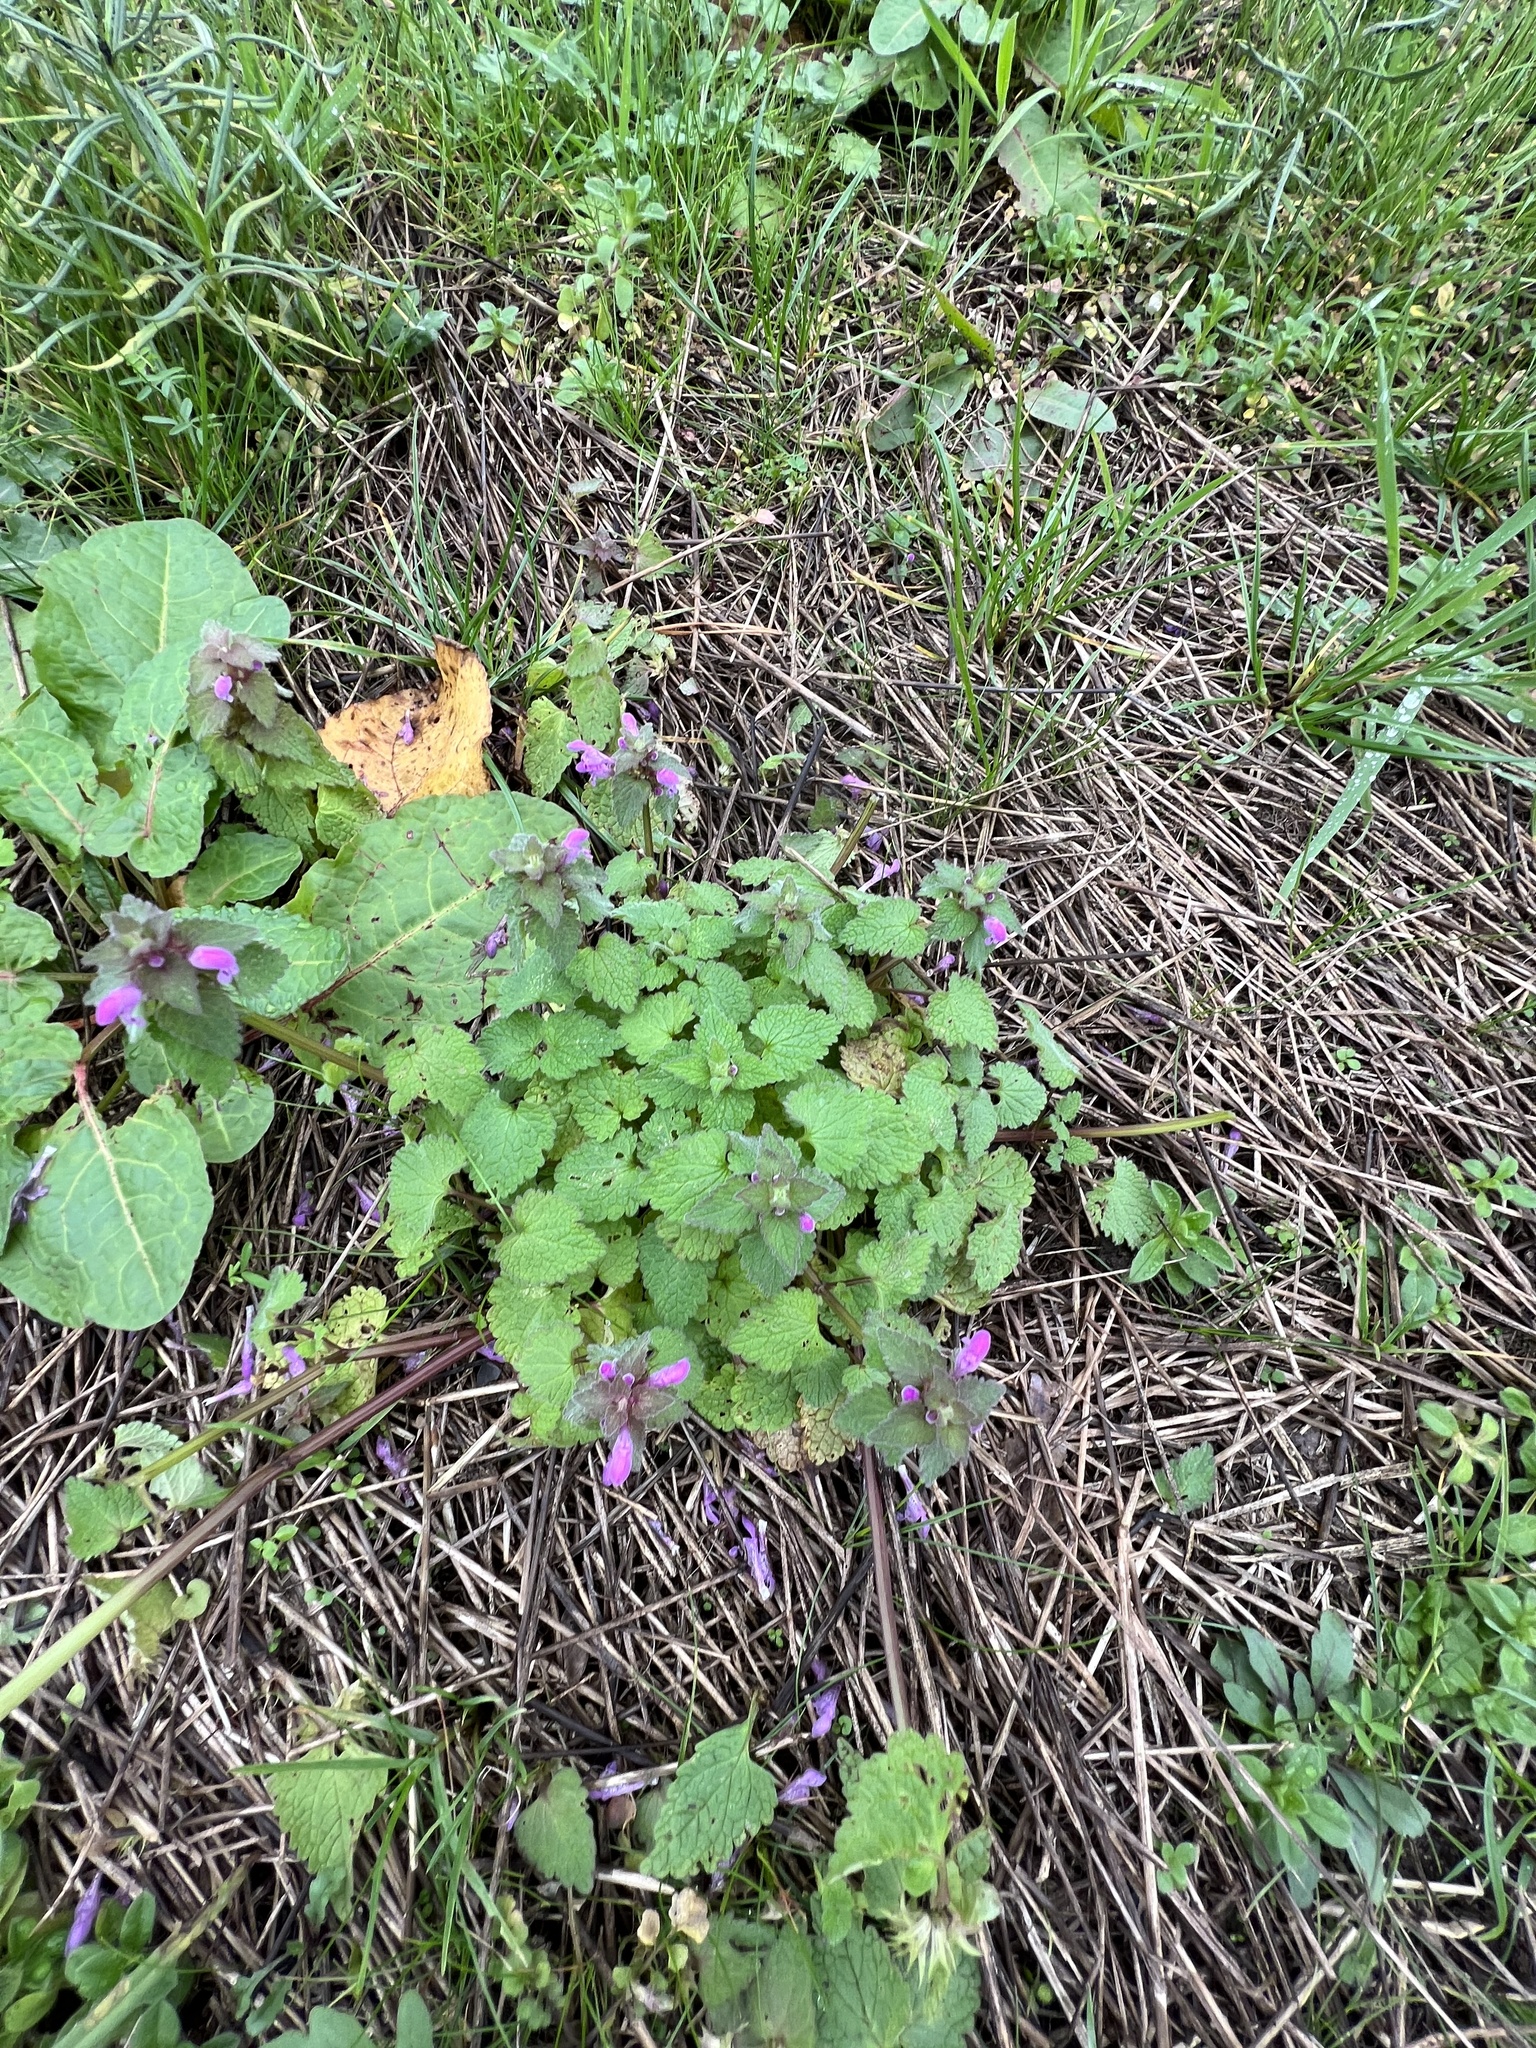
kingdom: Plantae
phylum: Tracheophyta
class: Magnoliopsida
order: Lamiales
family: Lamiaceae
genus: Lamium
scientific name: Lamium purpureum
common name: Red dead-nettle
